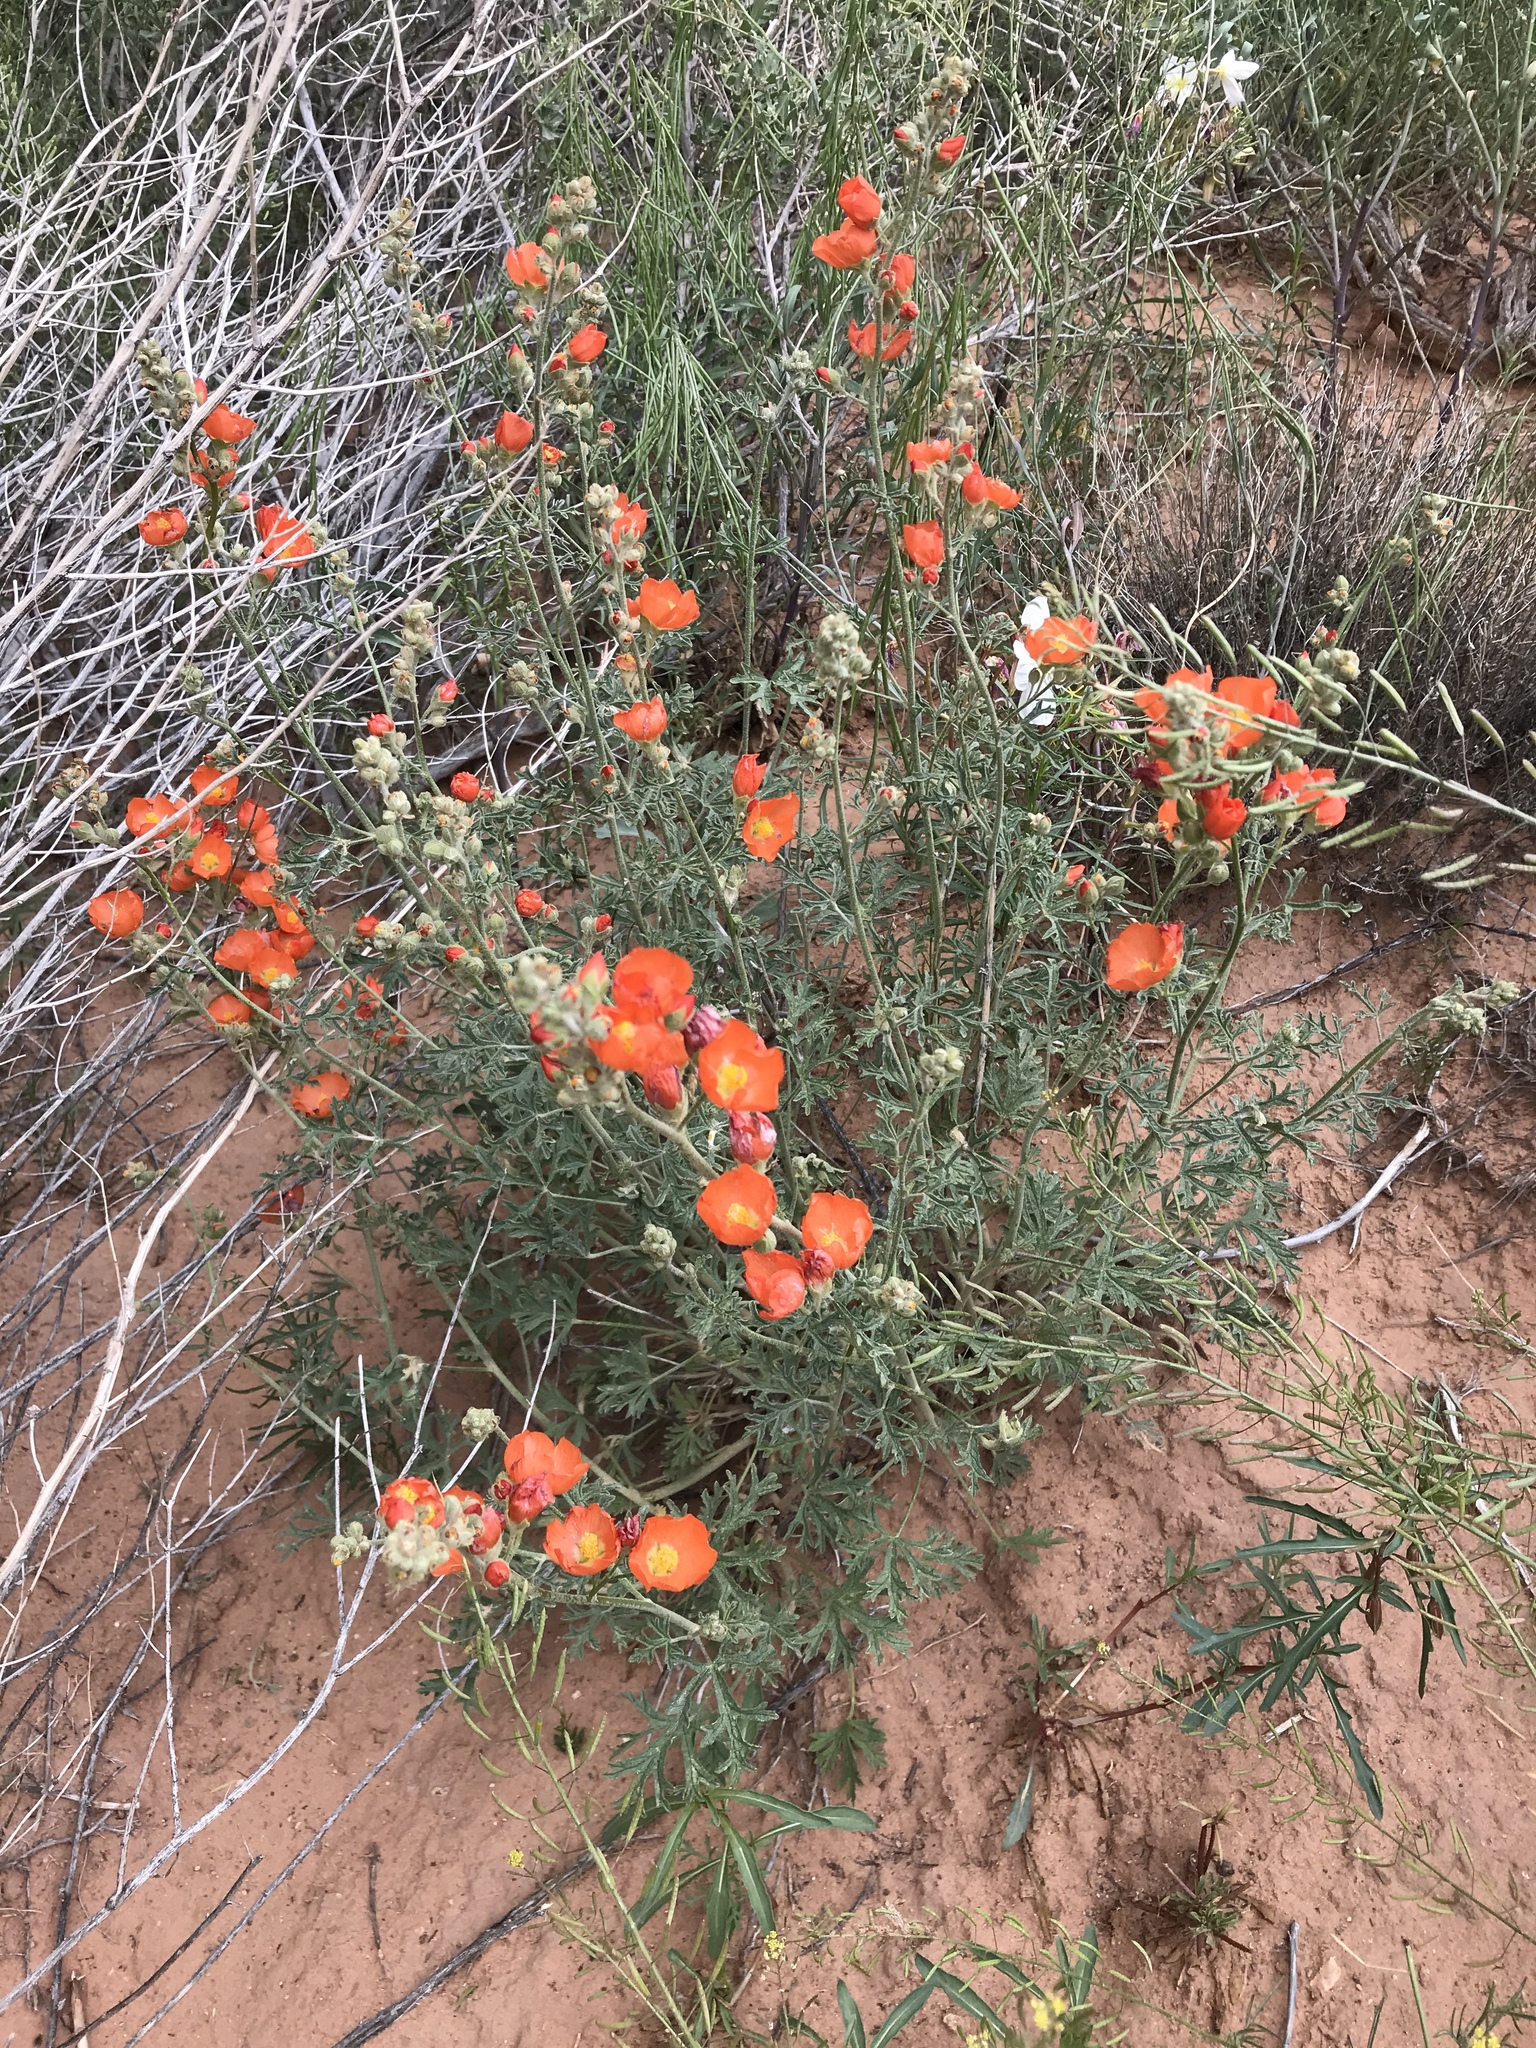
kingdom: Plantae
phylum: Tracheophyta
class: Magnoliopsida
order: Malvales
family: Malvaceae
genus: Sphaeralcea
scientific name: Sphaeralcea coccinea
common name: Moss-rose
